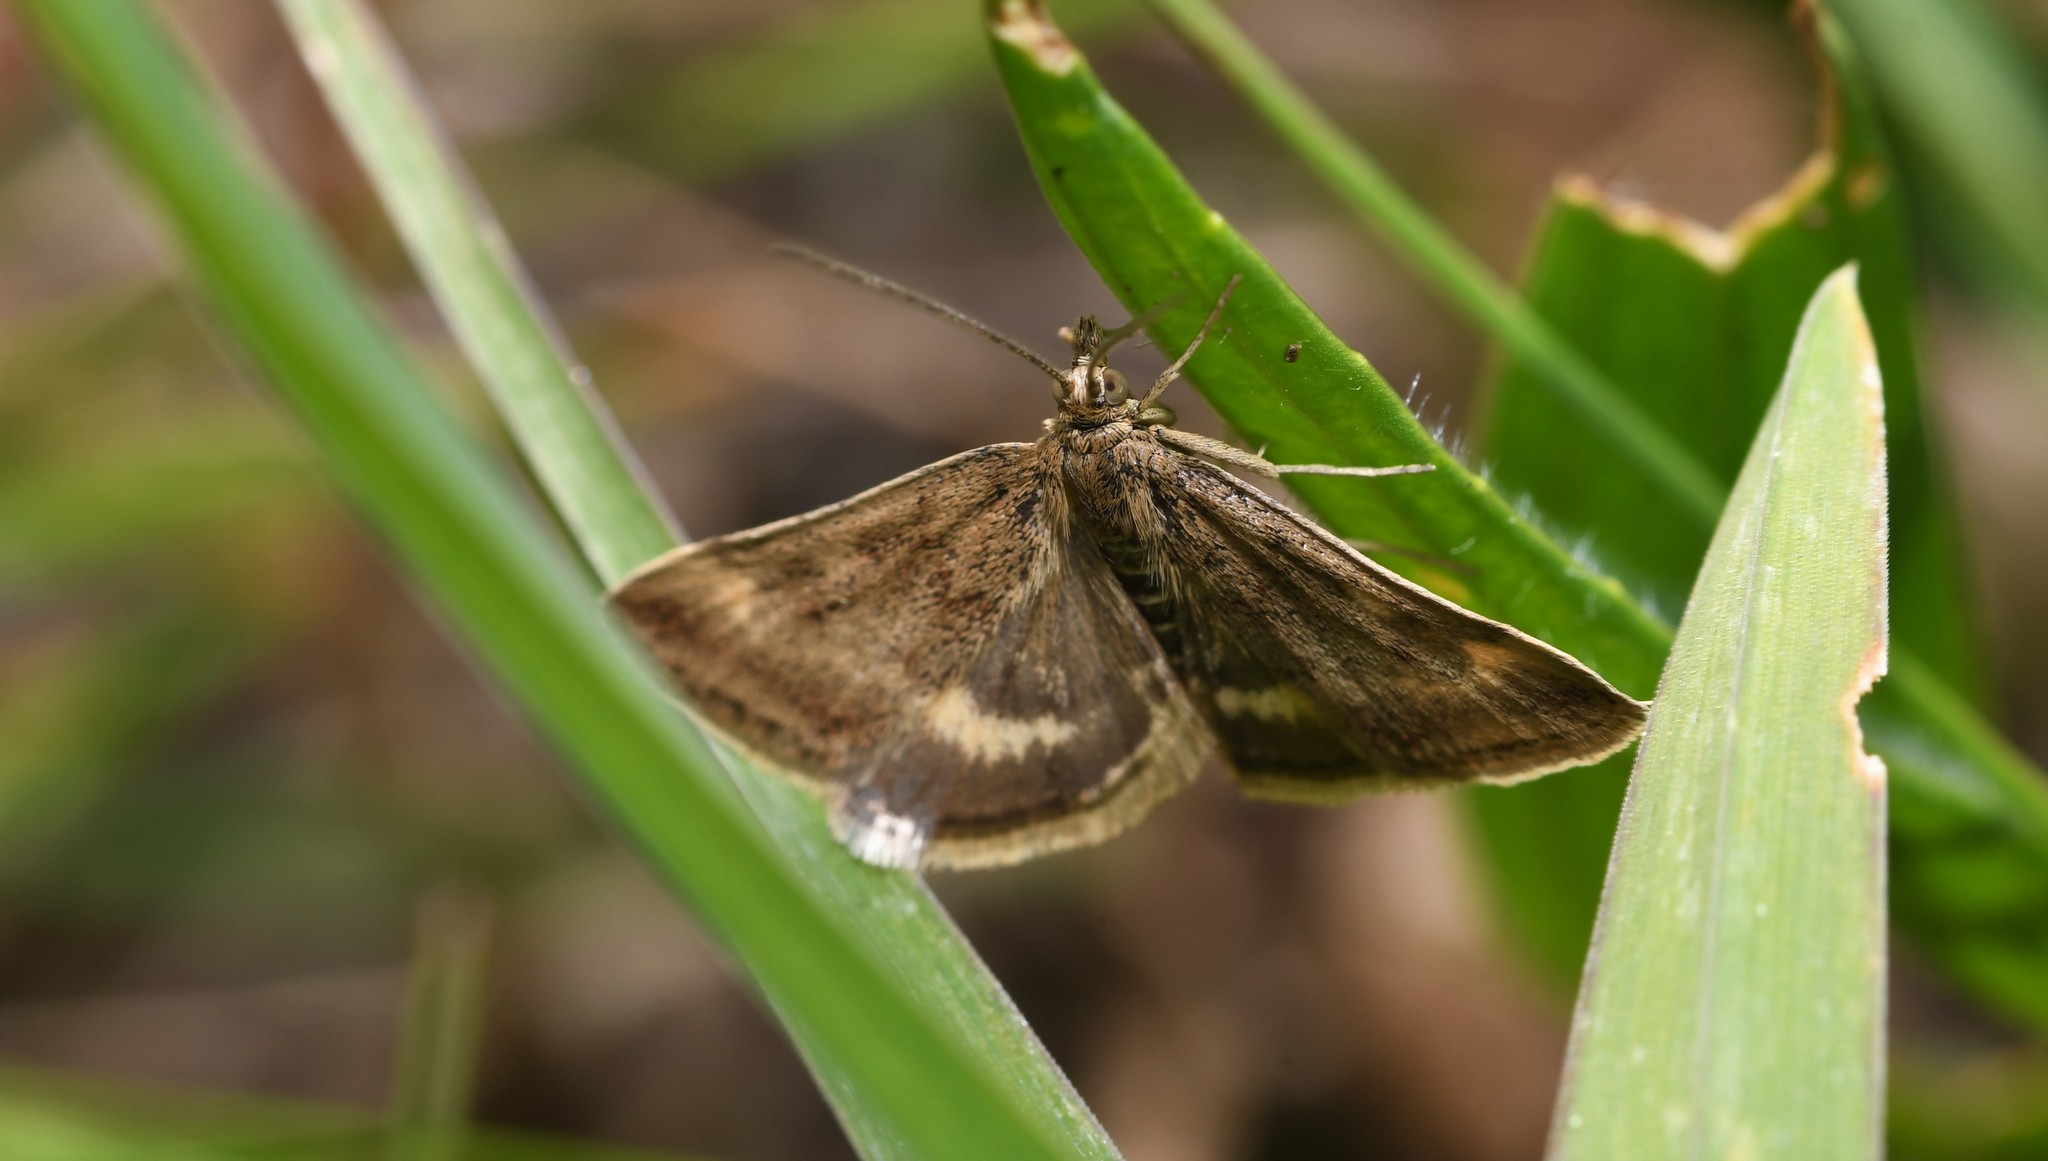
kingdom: Animalia
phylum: Arthropoda
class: Insecta
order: Lepidoptera
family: Crambidae
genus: Pyrausta
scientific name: Pyrausta despicata
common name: Straw-barred pearl
